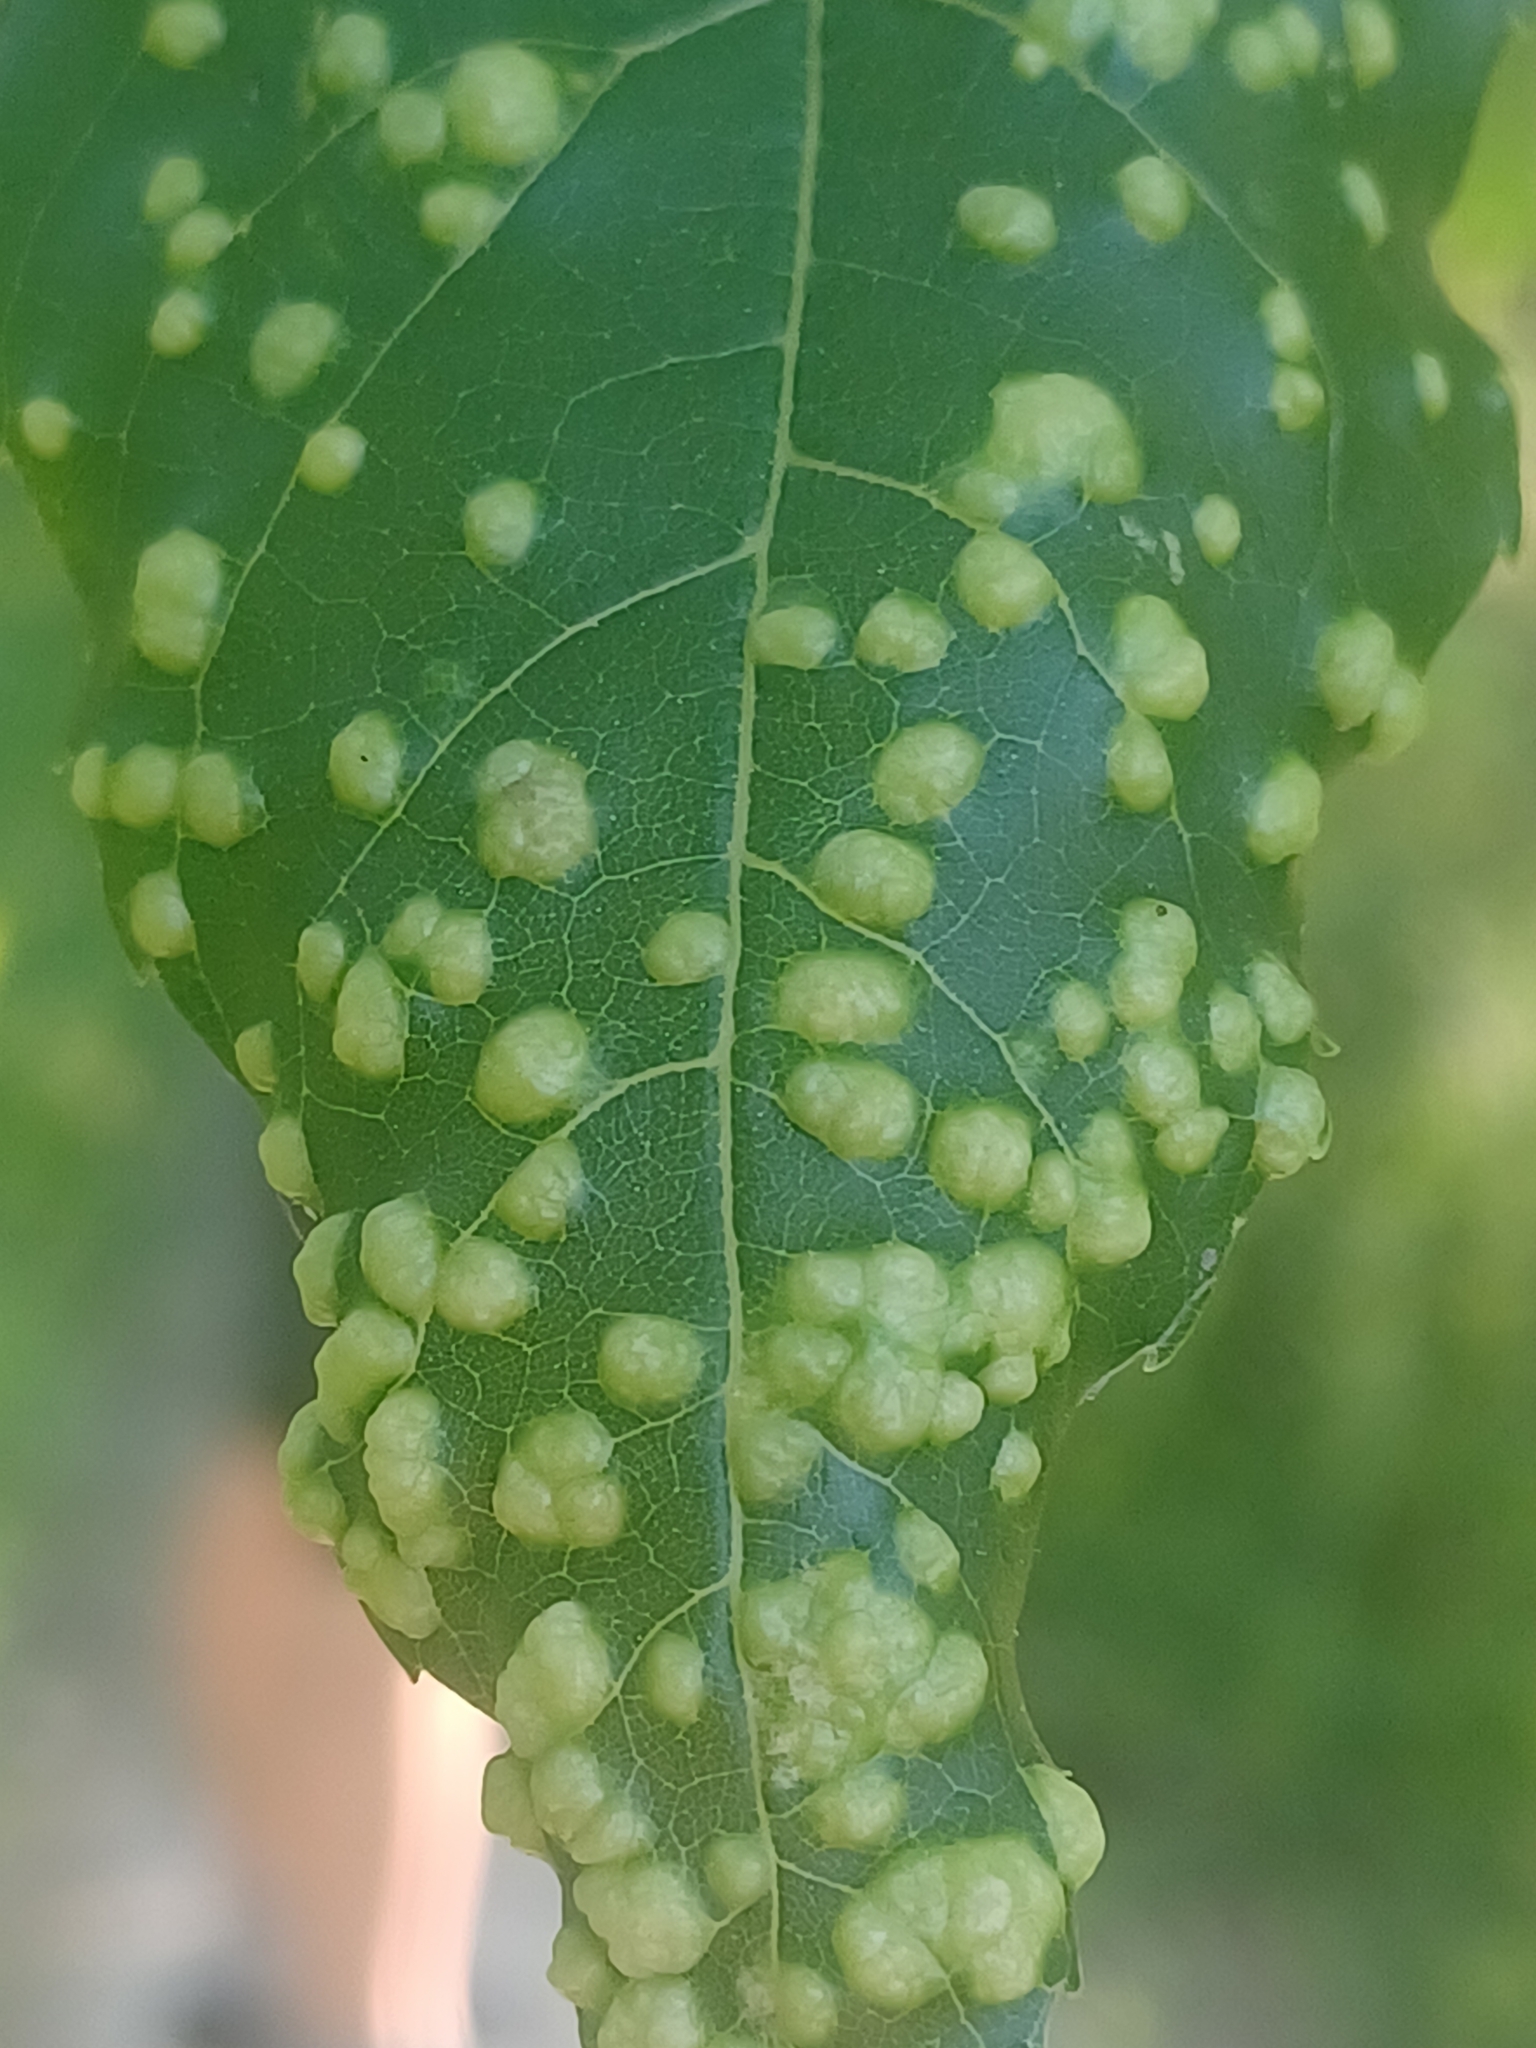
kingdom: Animalia
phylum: Arthropoda
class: Arachnida
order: Trombidiformes
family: Eriophyidae
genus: Aceria
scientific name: Aceria fraxinicola
